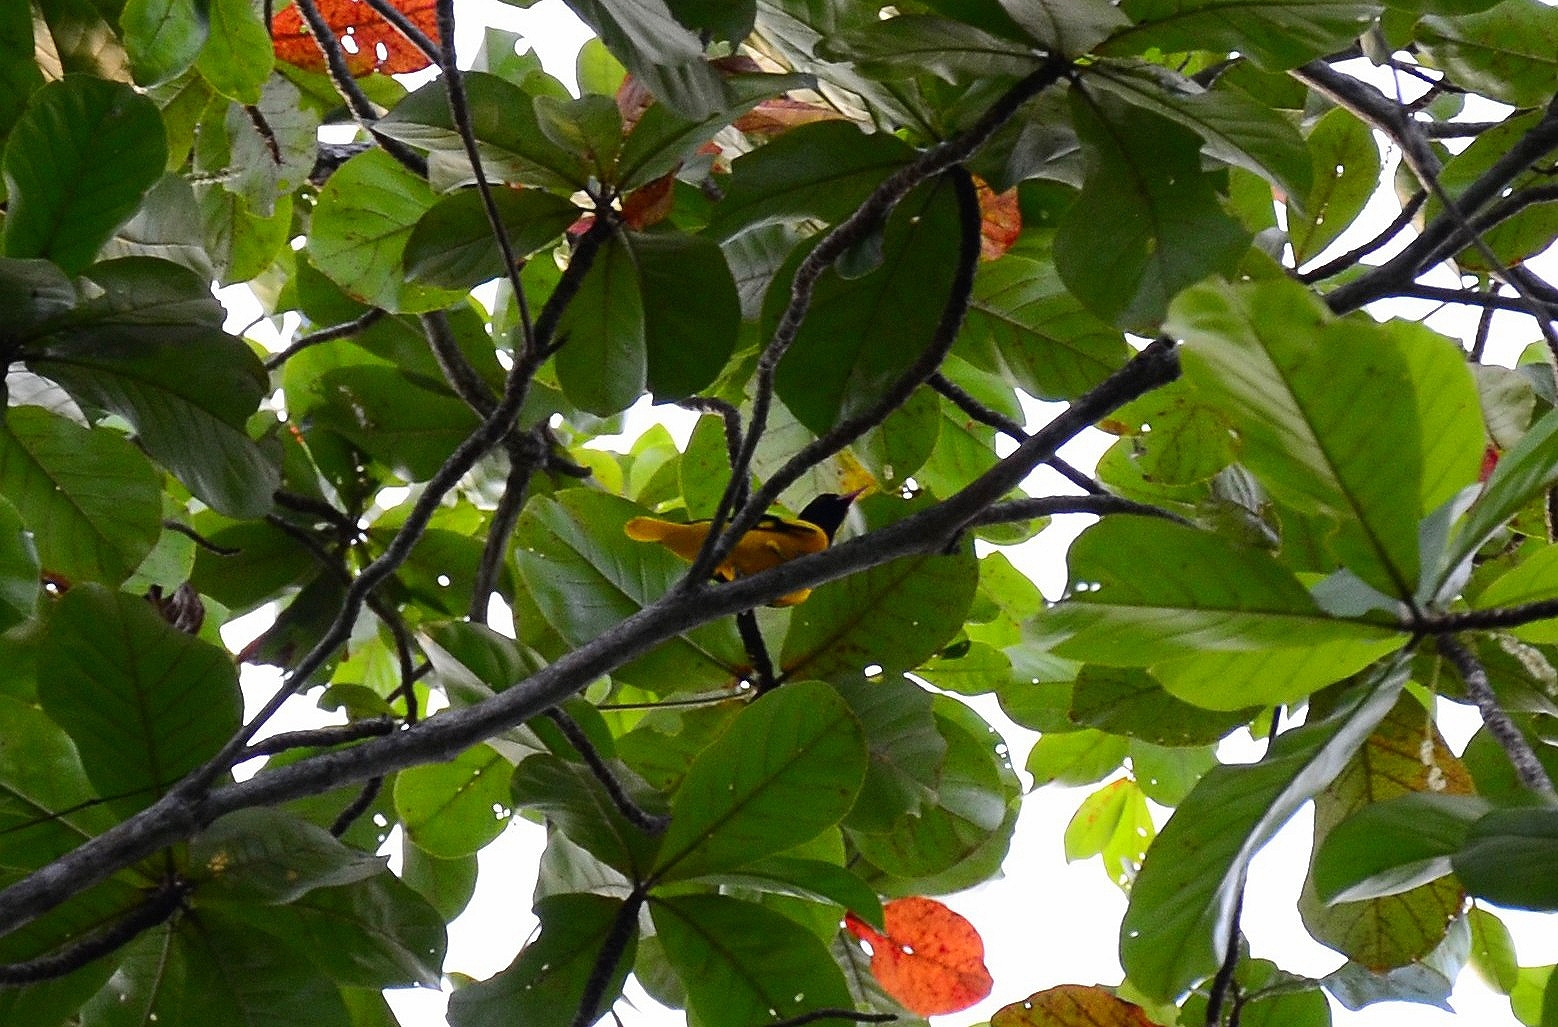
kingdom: Animalia
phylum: Chordata
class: Aves
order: Passeriformes
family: Oriolidae
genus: Oriolus
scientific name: Oriolus xanthornus
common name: Black-hooded oriole
